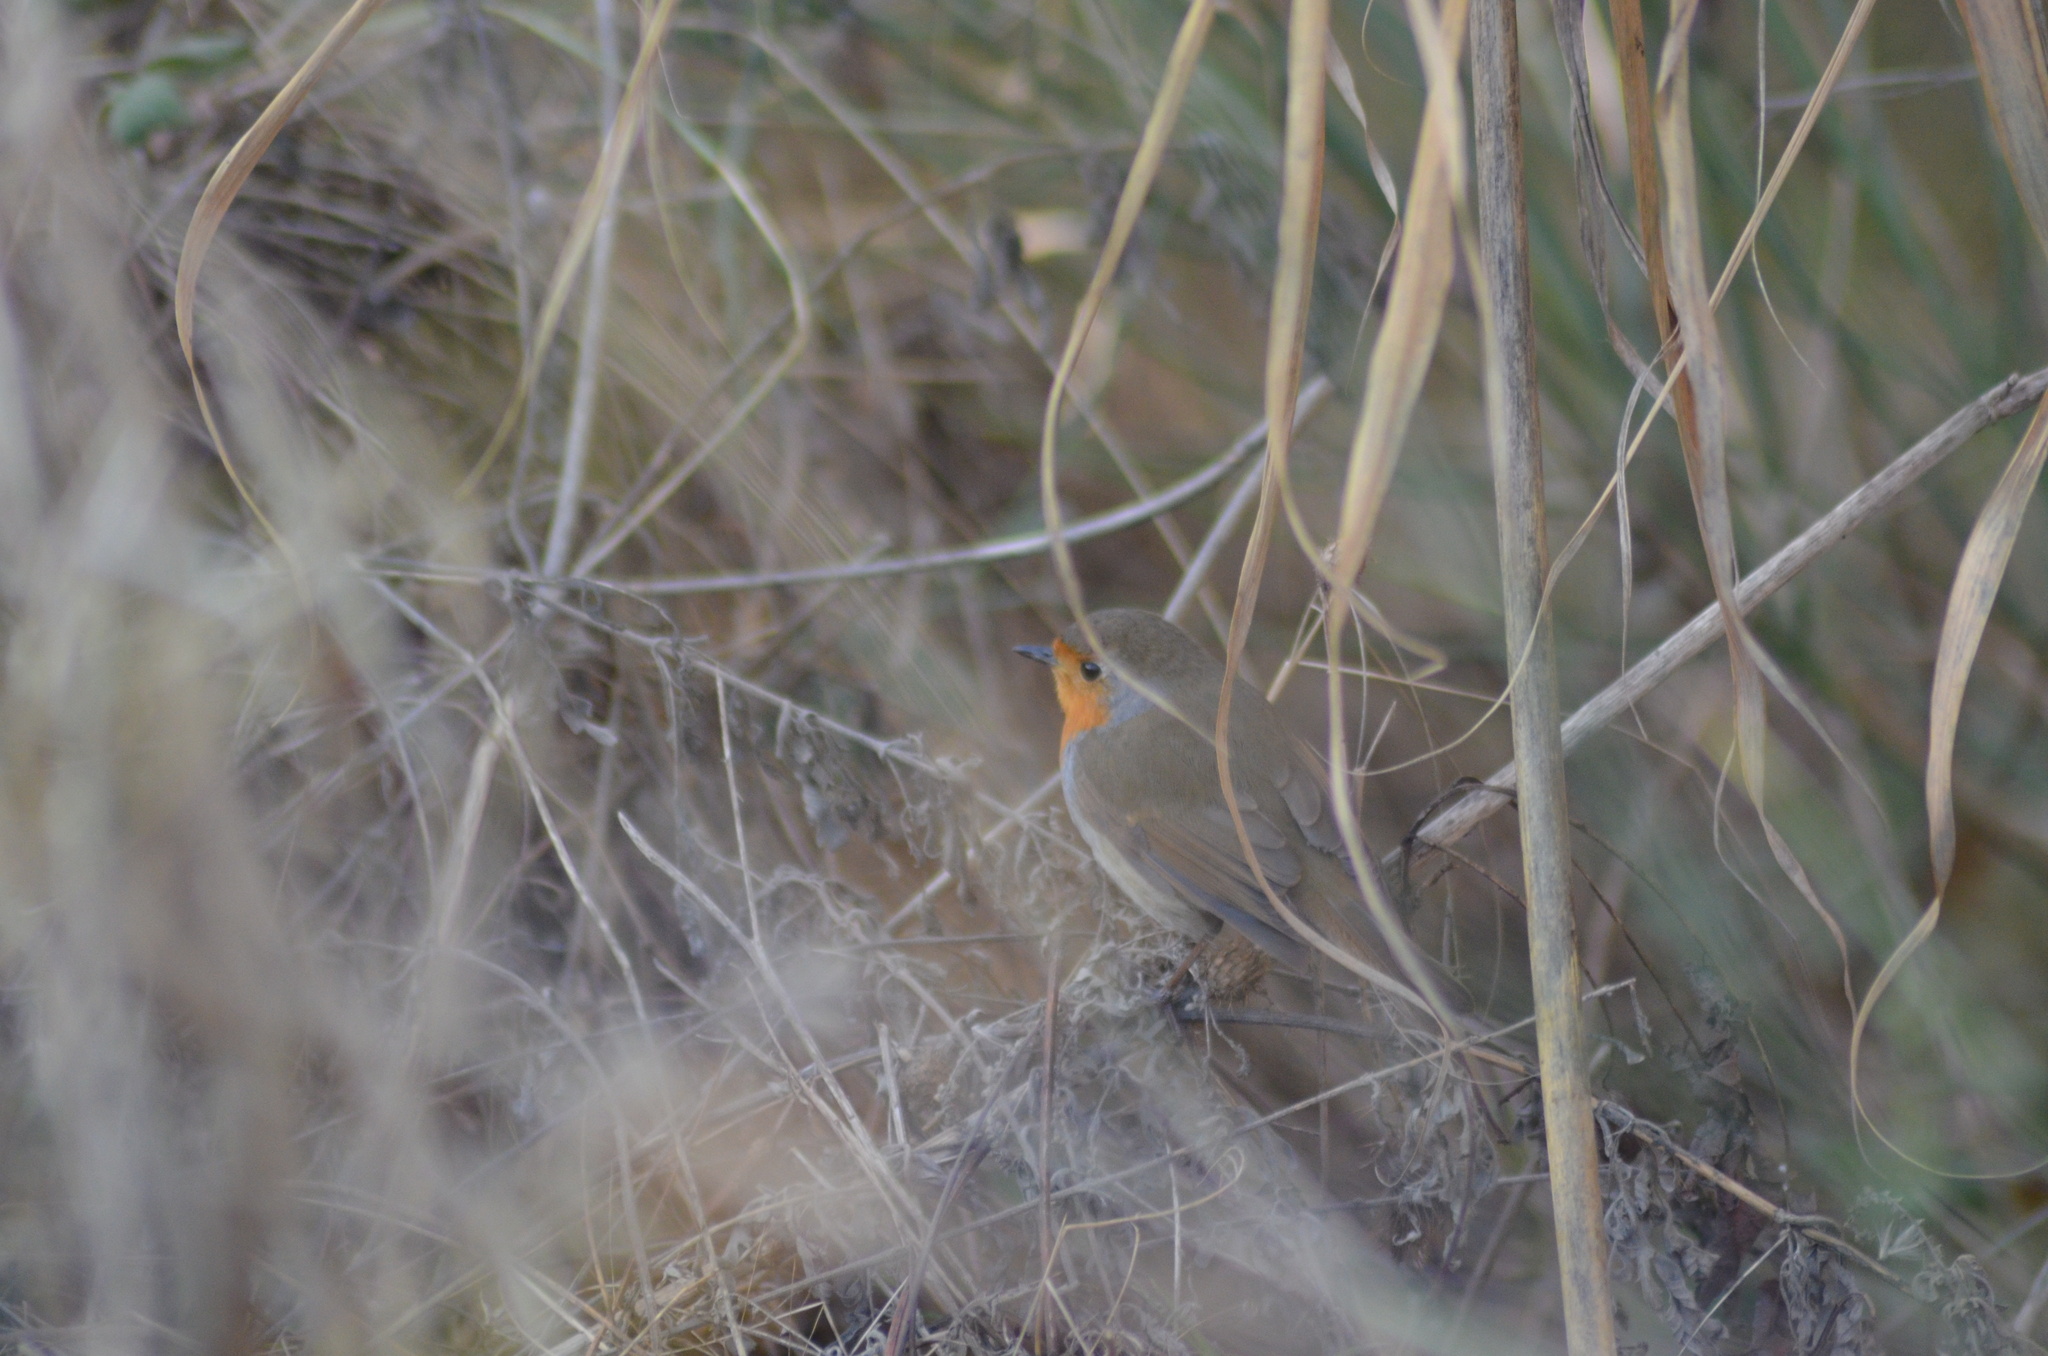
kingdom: Animalia
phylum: Chordata
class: Aves
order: Passeriformes
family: Muscicapidae
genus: Erithacus
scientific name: Erithacus rubecula
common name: European robin
